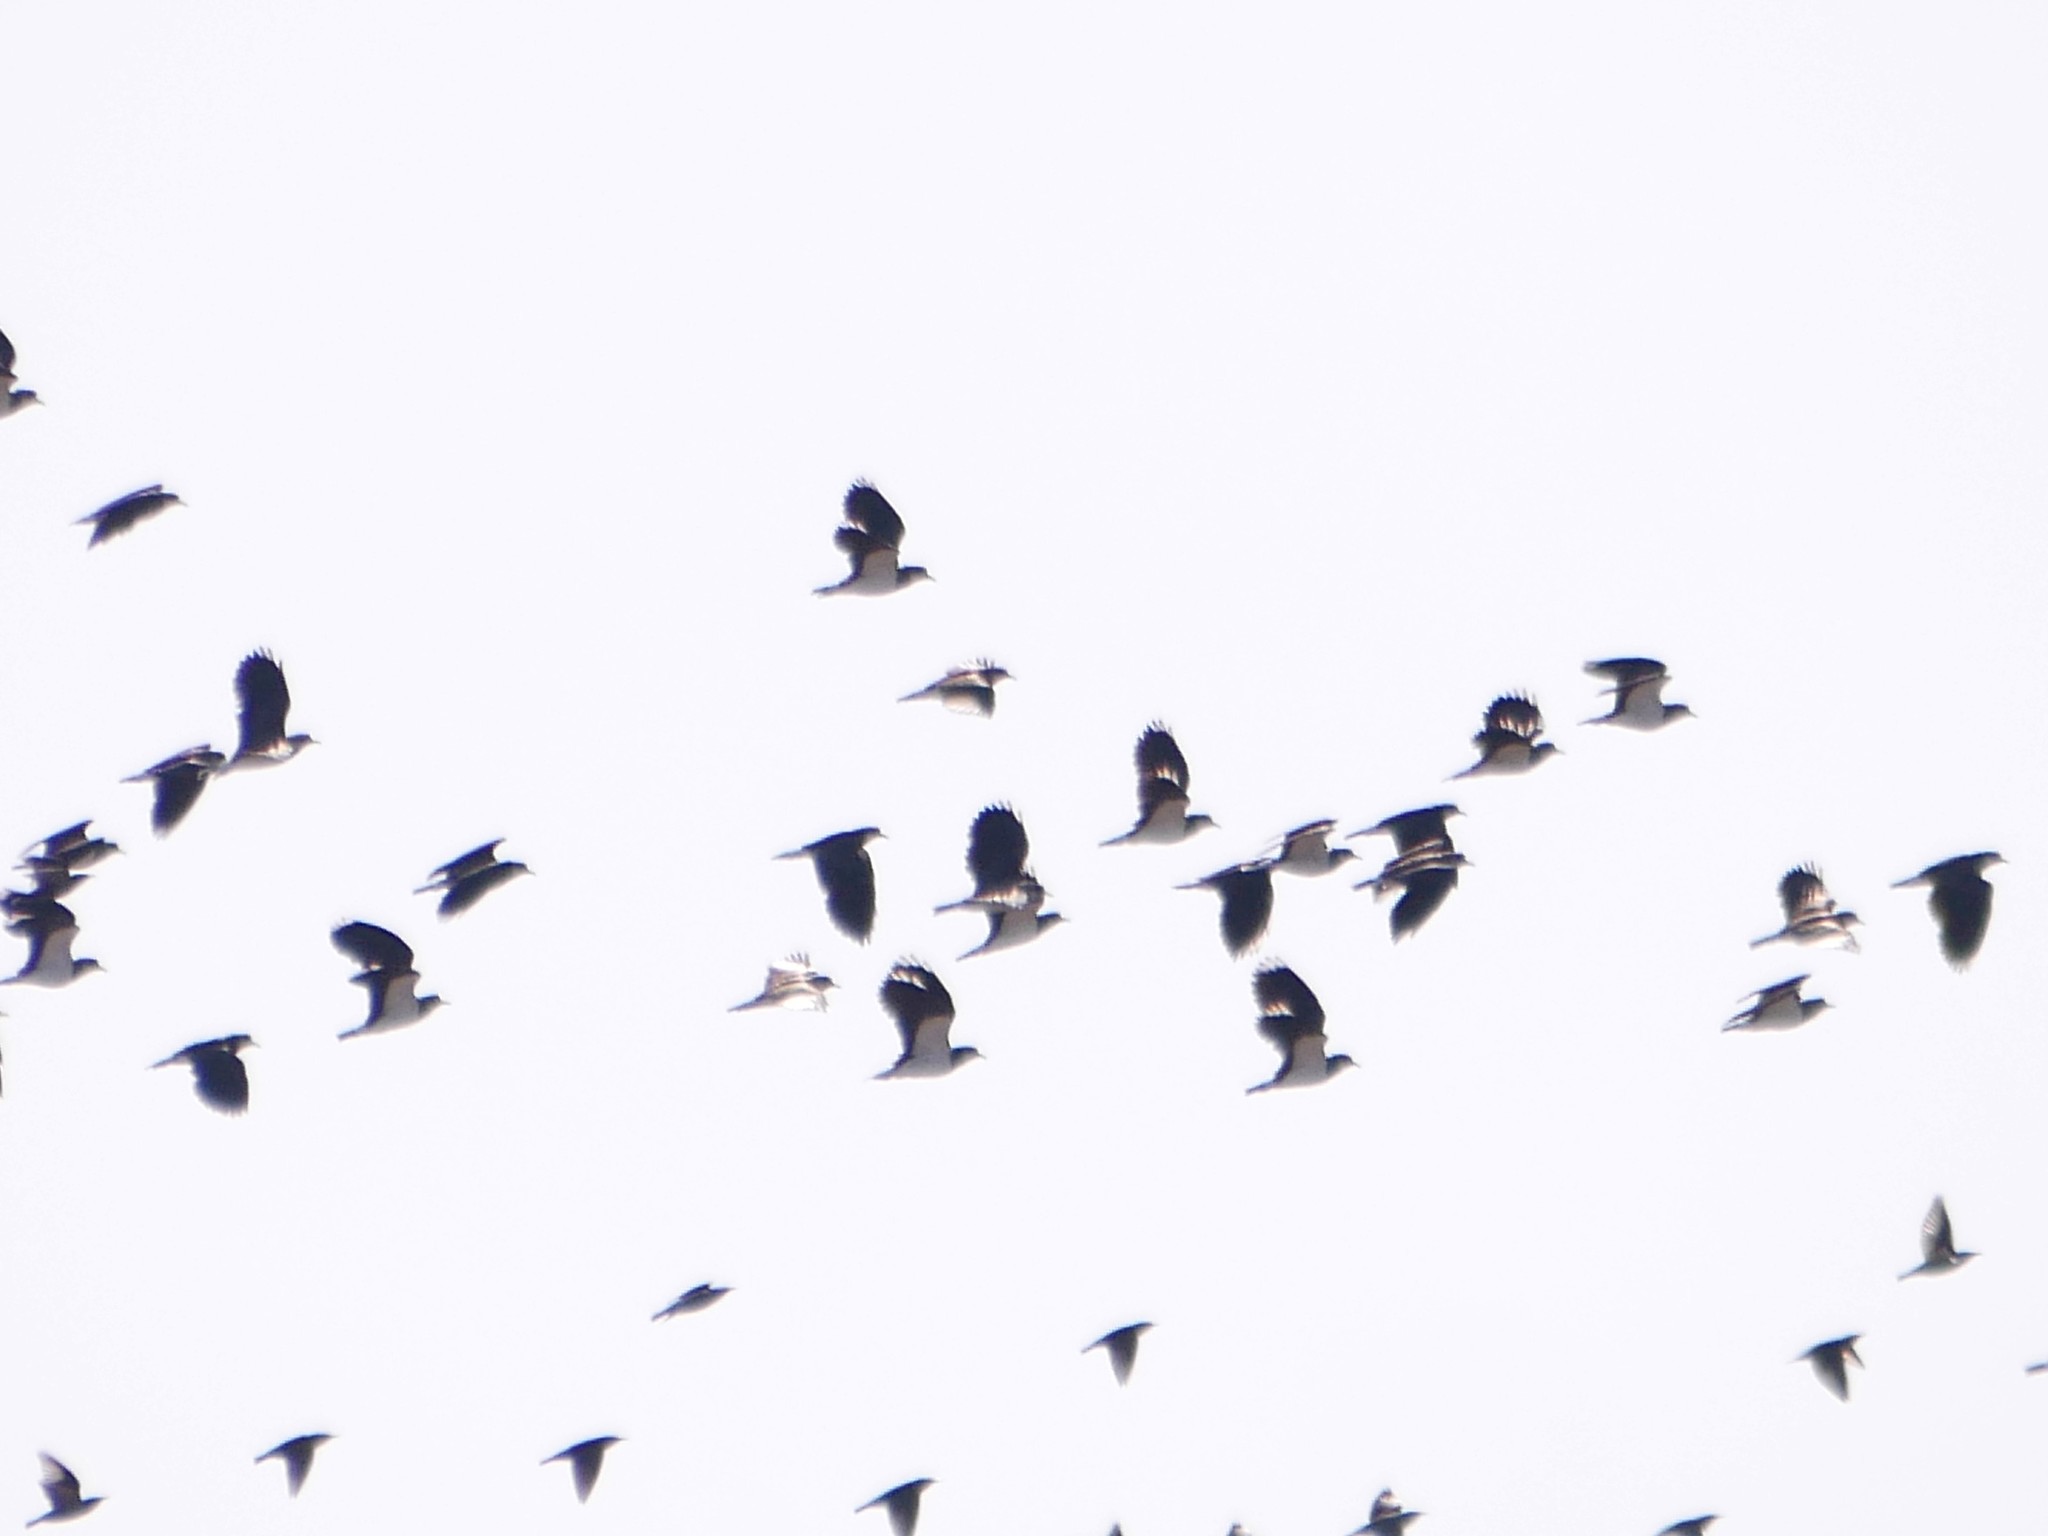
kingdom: Animalia
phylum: Chordata
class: Aves
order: Charadriiformes
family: Charadriidae
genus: Vanellus
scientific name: Vanellus vanellus
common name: Northern lapwing
